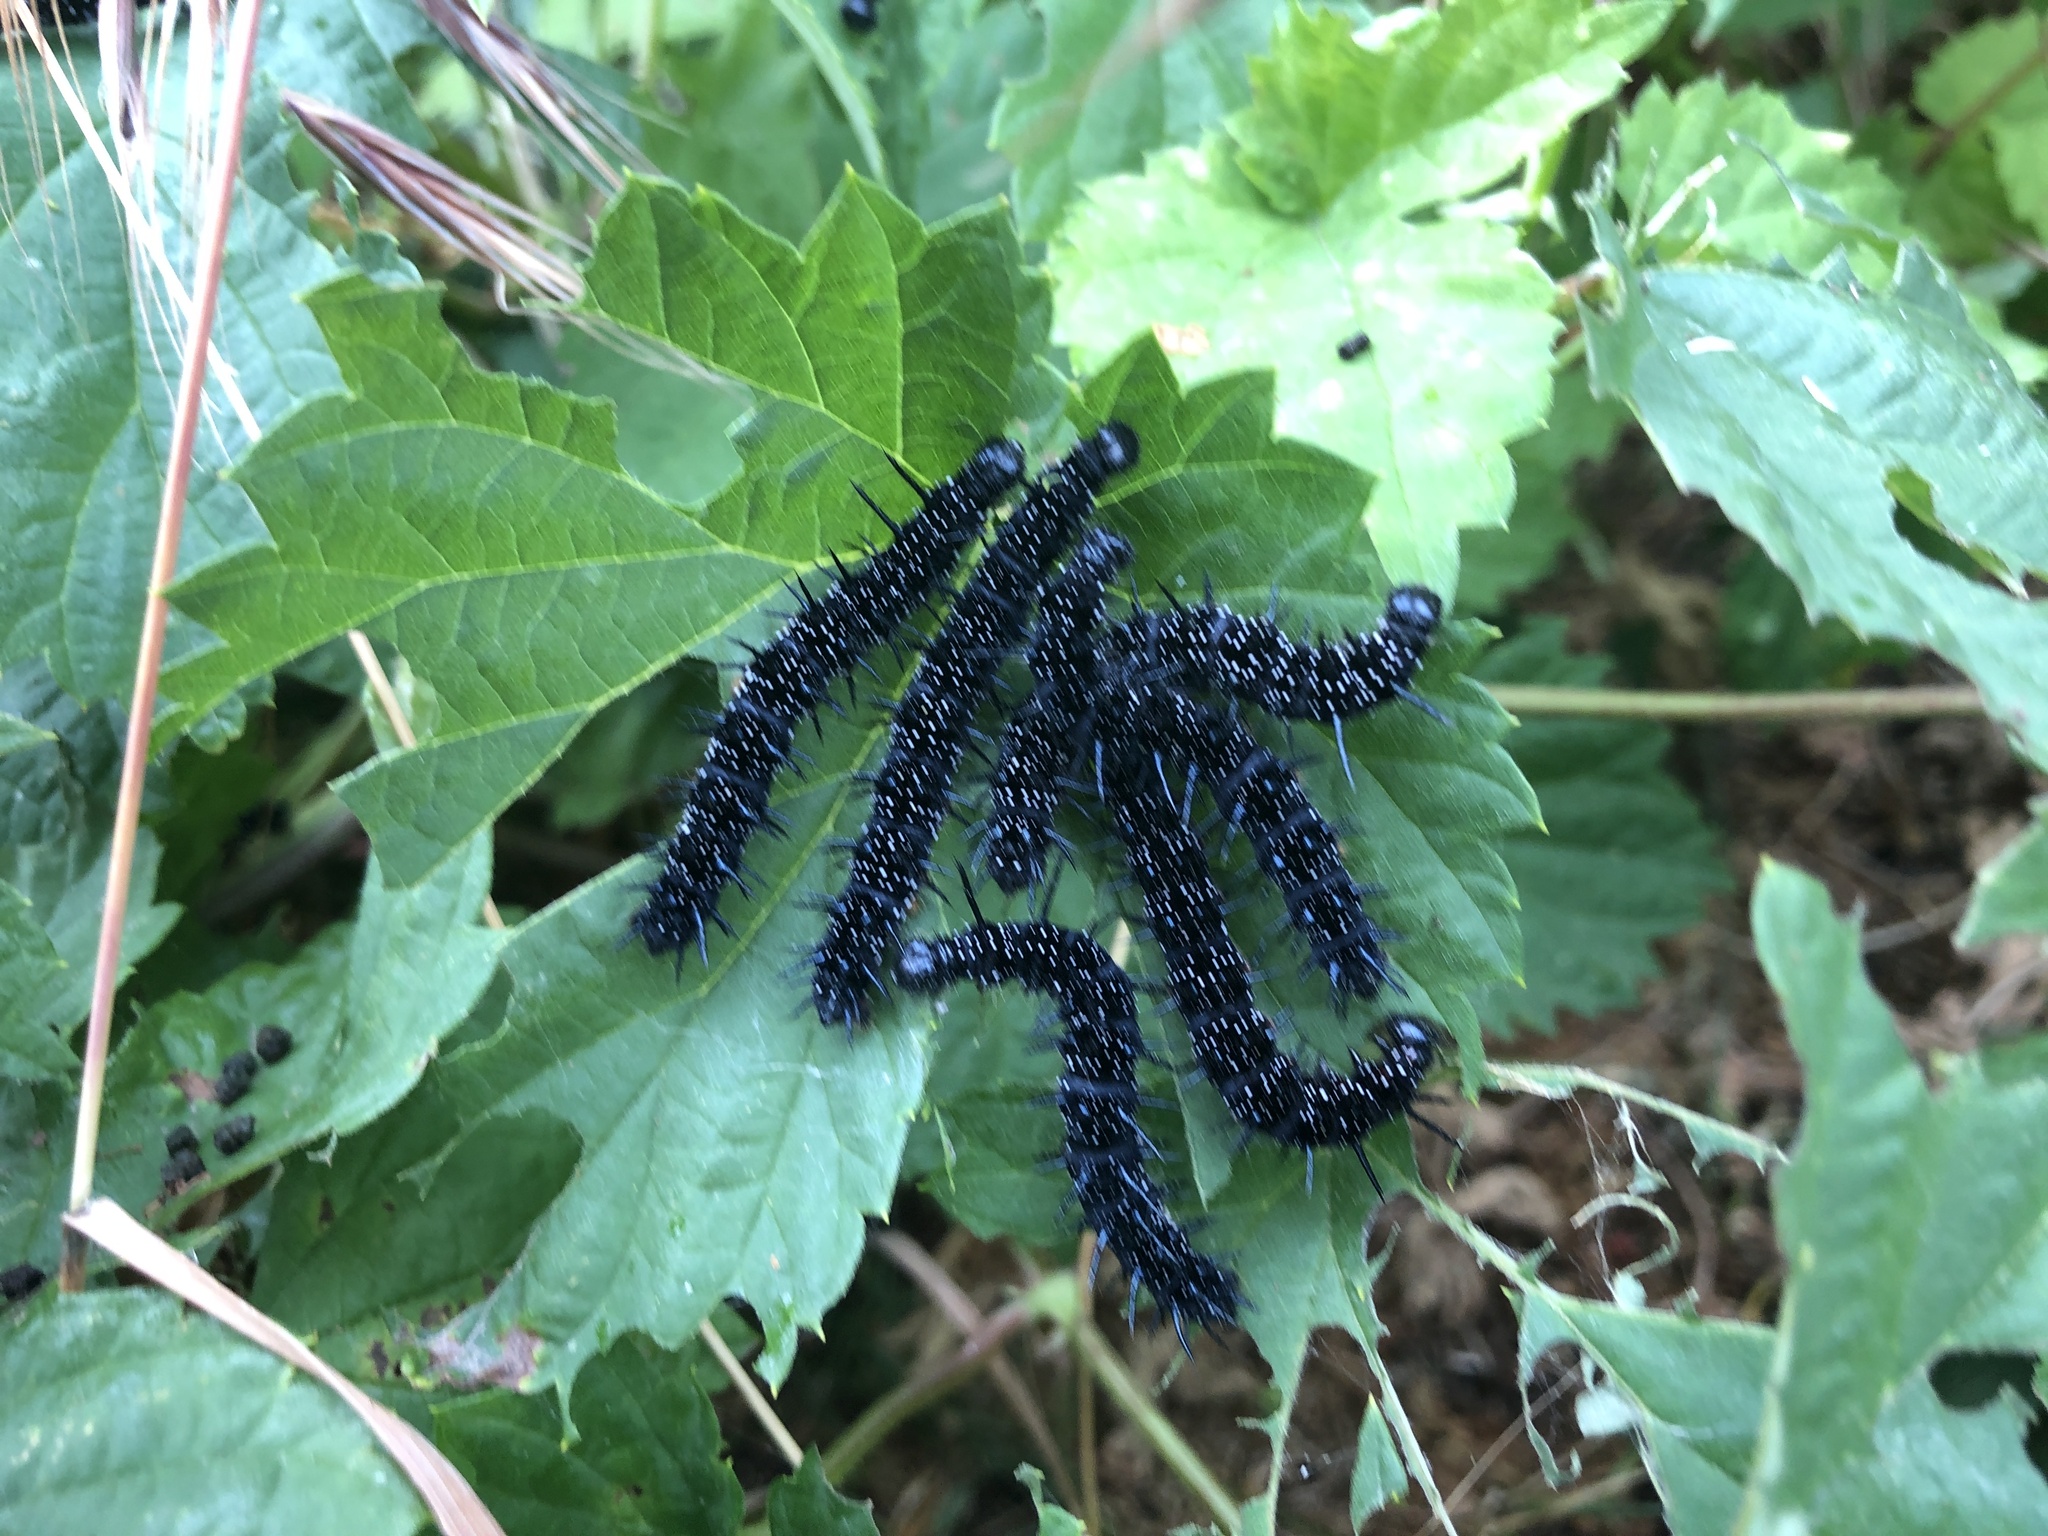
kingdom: Animalia
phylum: Arthropoda
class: Insecta
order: Lepidoptera
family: Nymphalidae
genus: Aglais
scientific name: Aglais io
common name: Peacock
